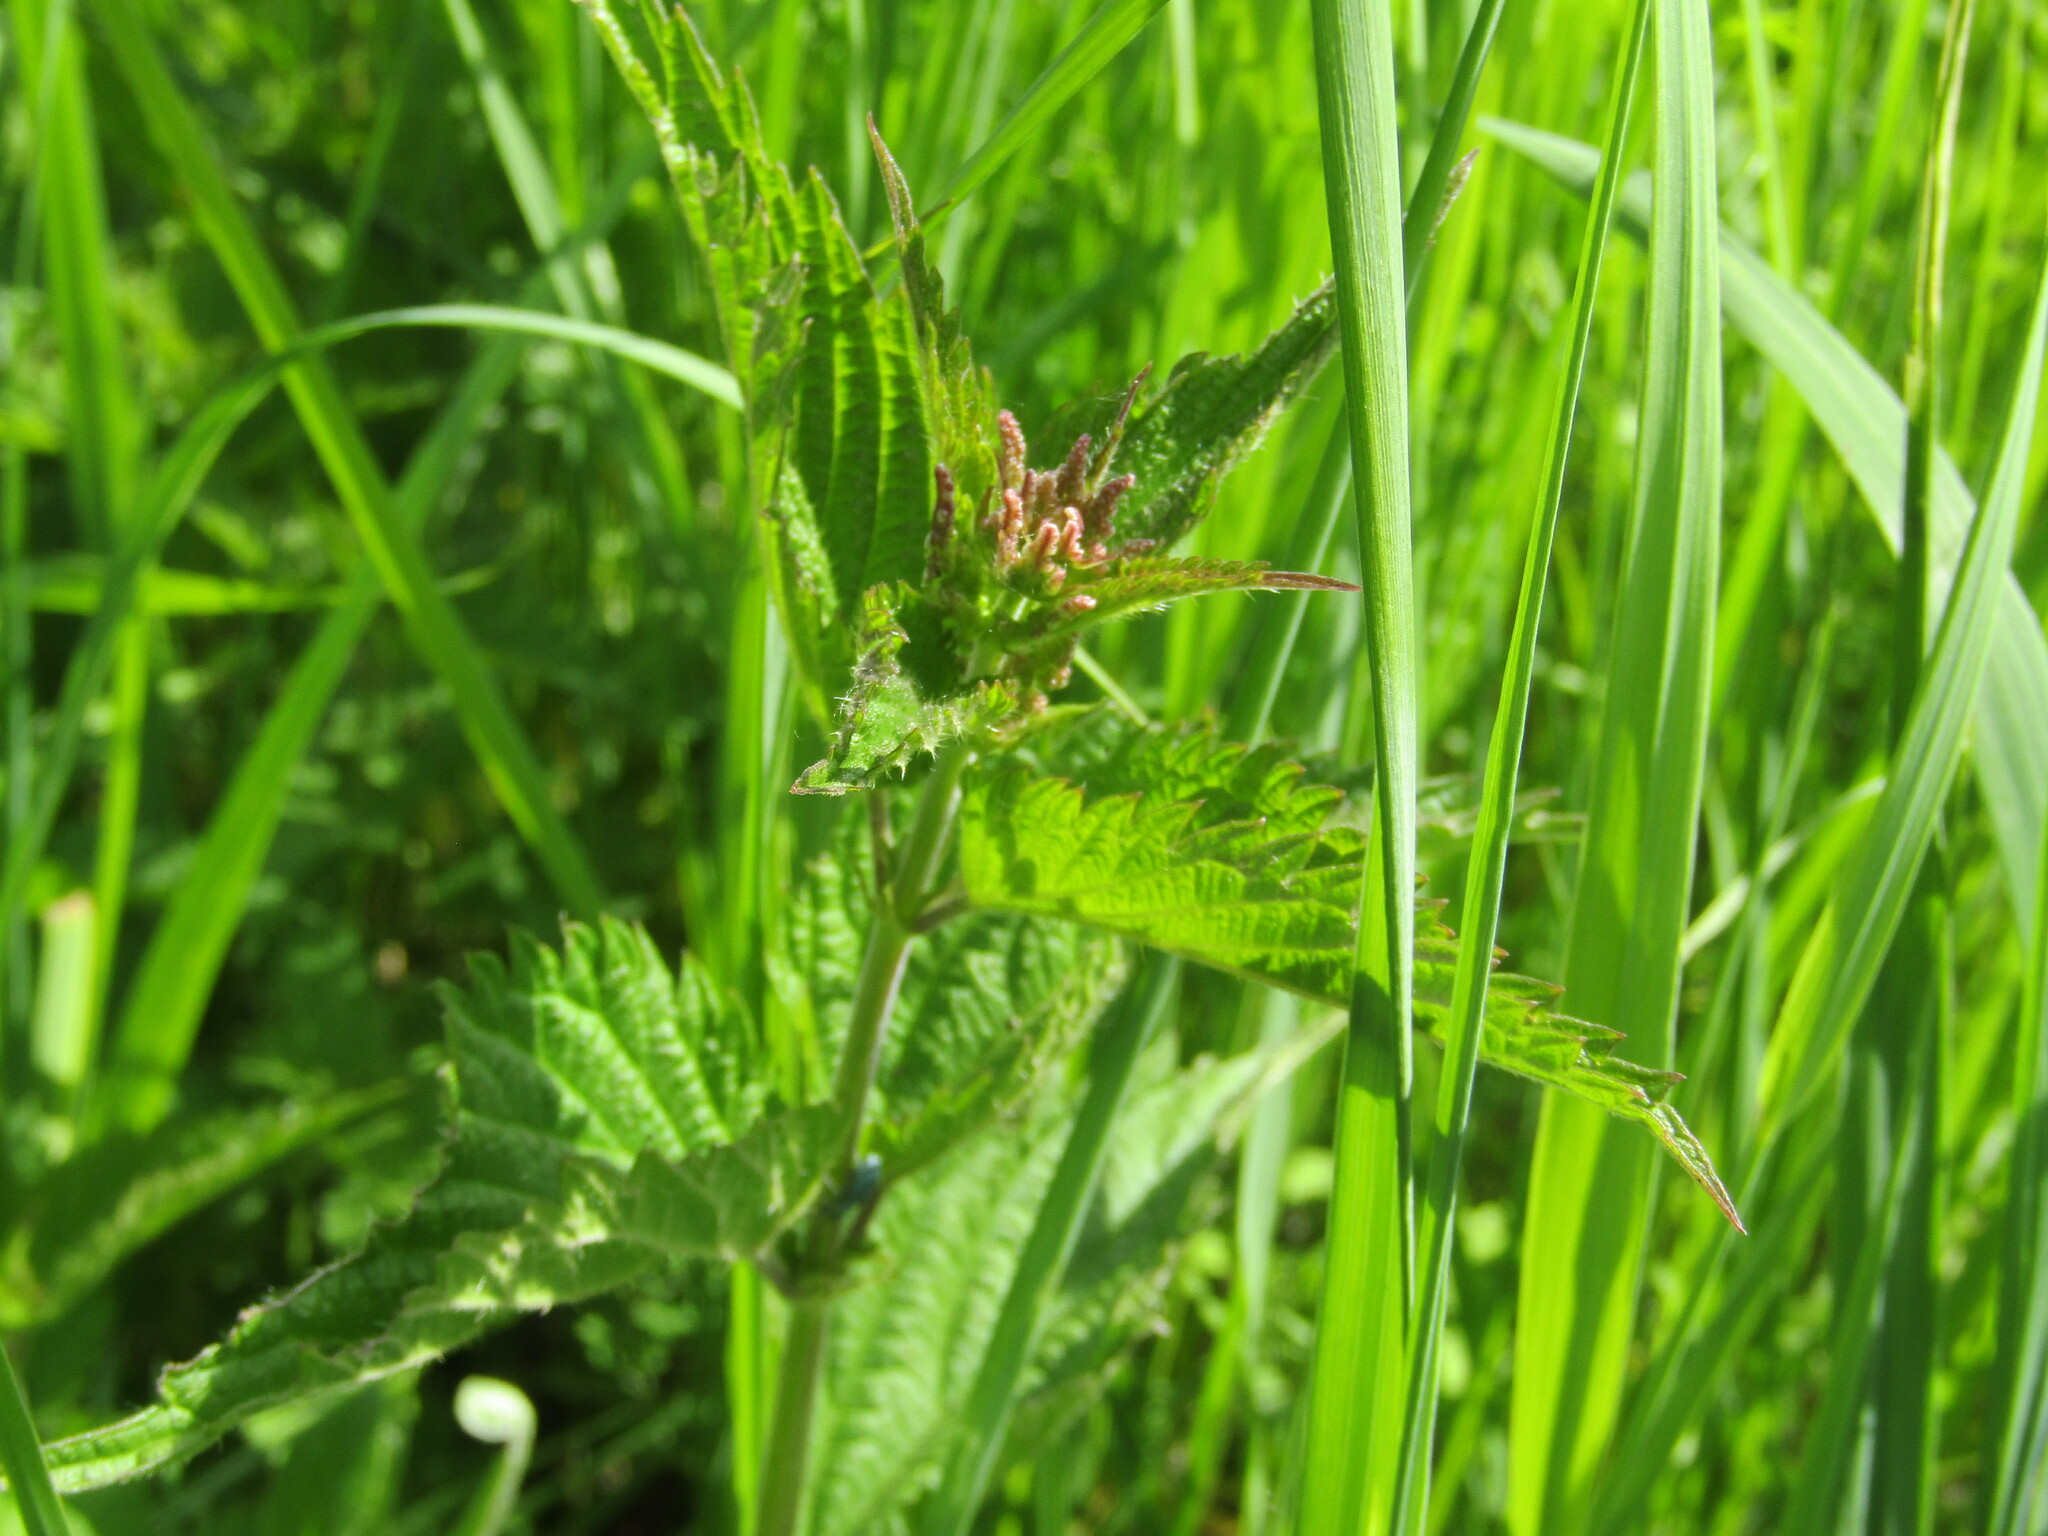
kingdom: Plantae
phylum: Tracheophyta
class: Magnoliopsida
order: Rosales
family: Urticaceae
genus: Urtica
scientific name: Urtica dioica
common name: Common nettle
